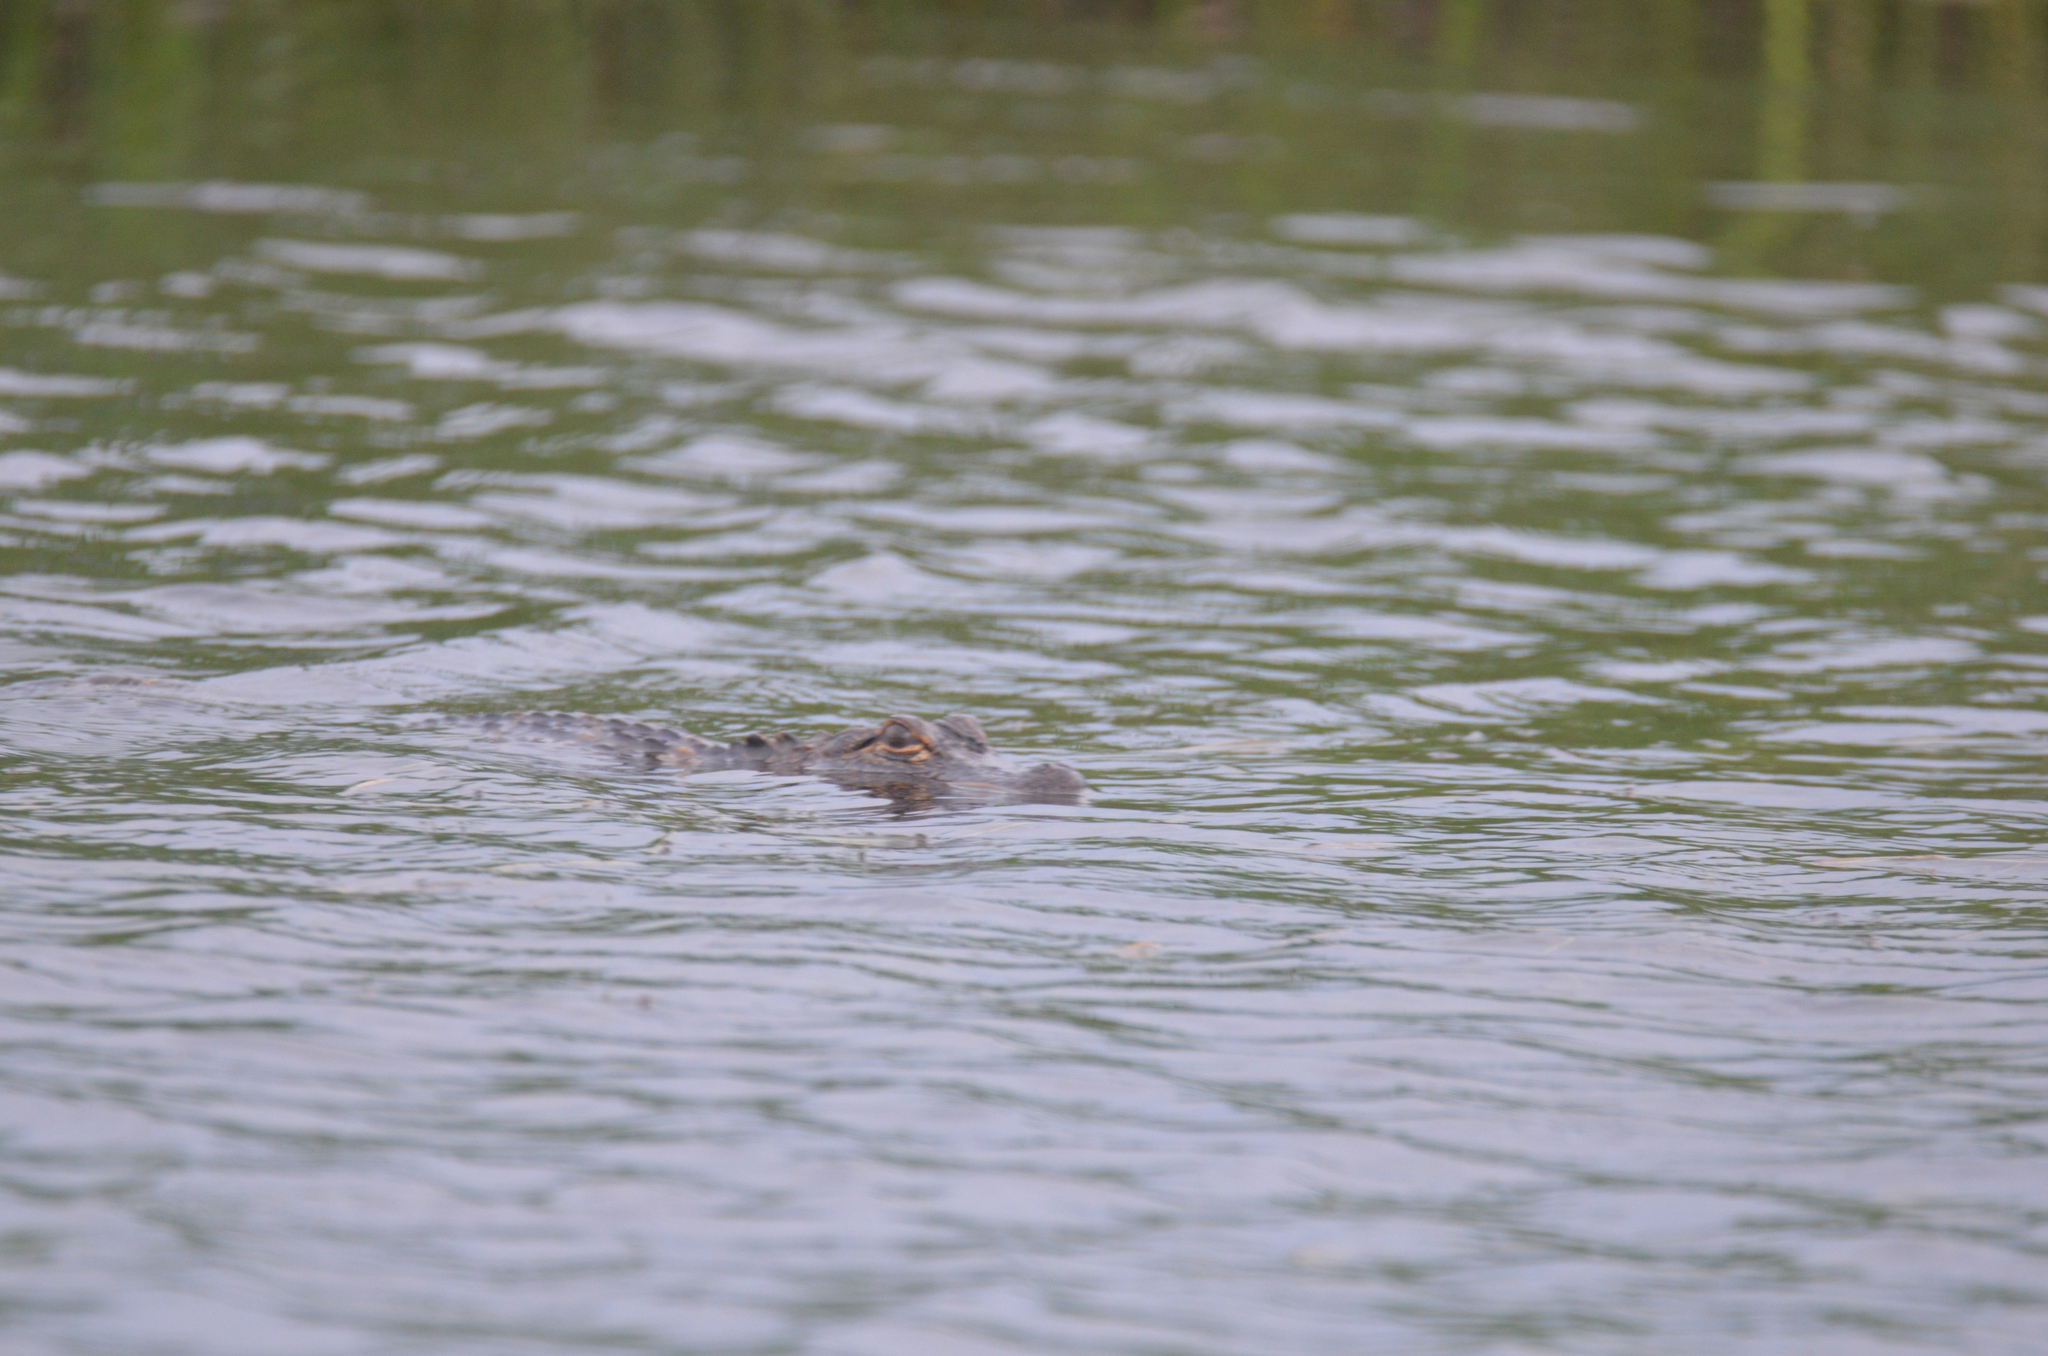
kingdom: Animalia
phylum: Chordata
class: Crocodylia
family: Alligatoridae
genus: Alligator
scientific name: Alligator mississippiensis
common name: American alligator
